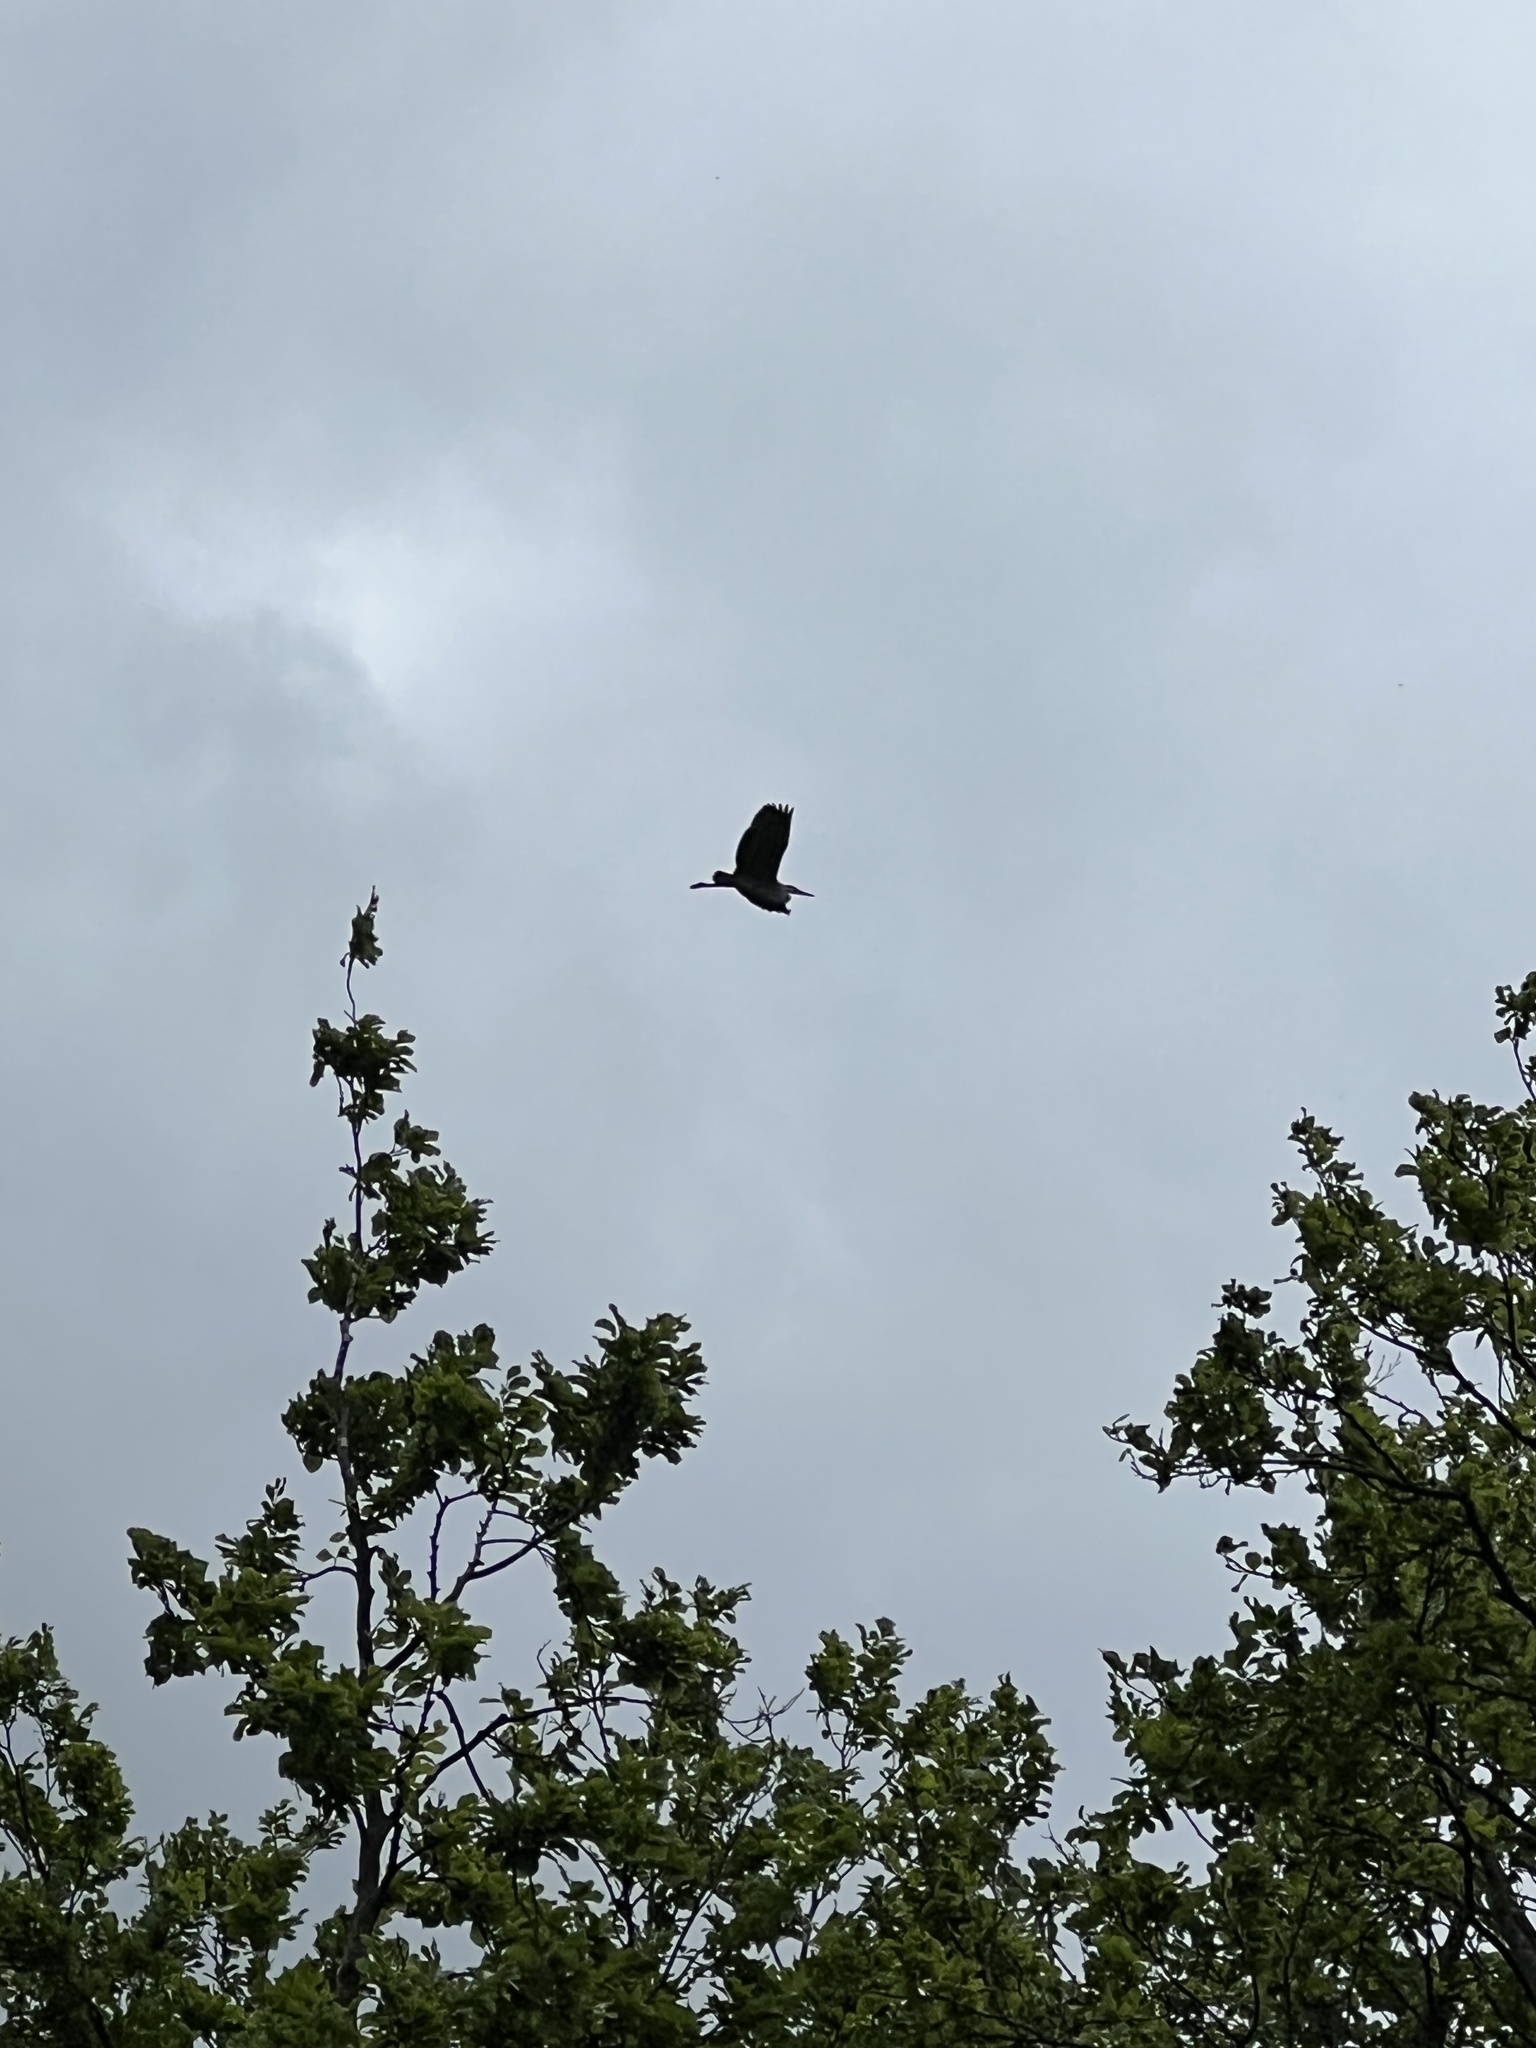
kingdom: Animalia
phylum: Chordata
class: Aves
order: Pelecaniformes
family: Ardeidae
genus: Ardea
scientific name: Ardea cinerea
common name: Grey heron
